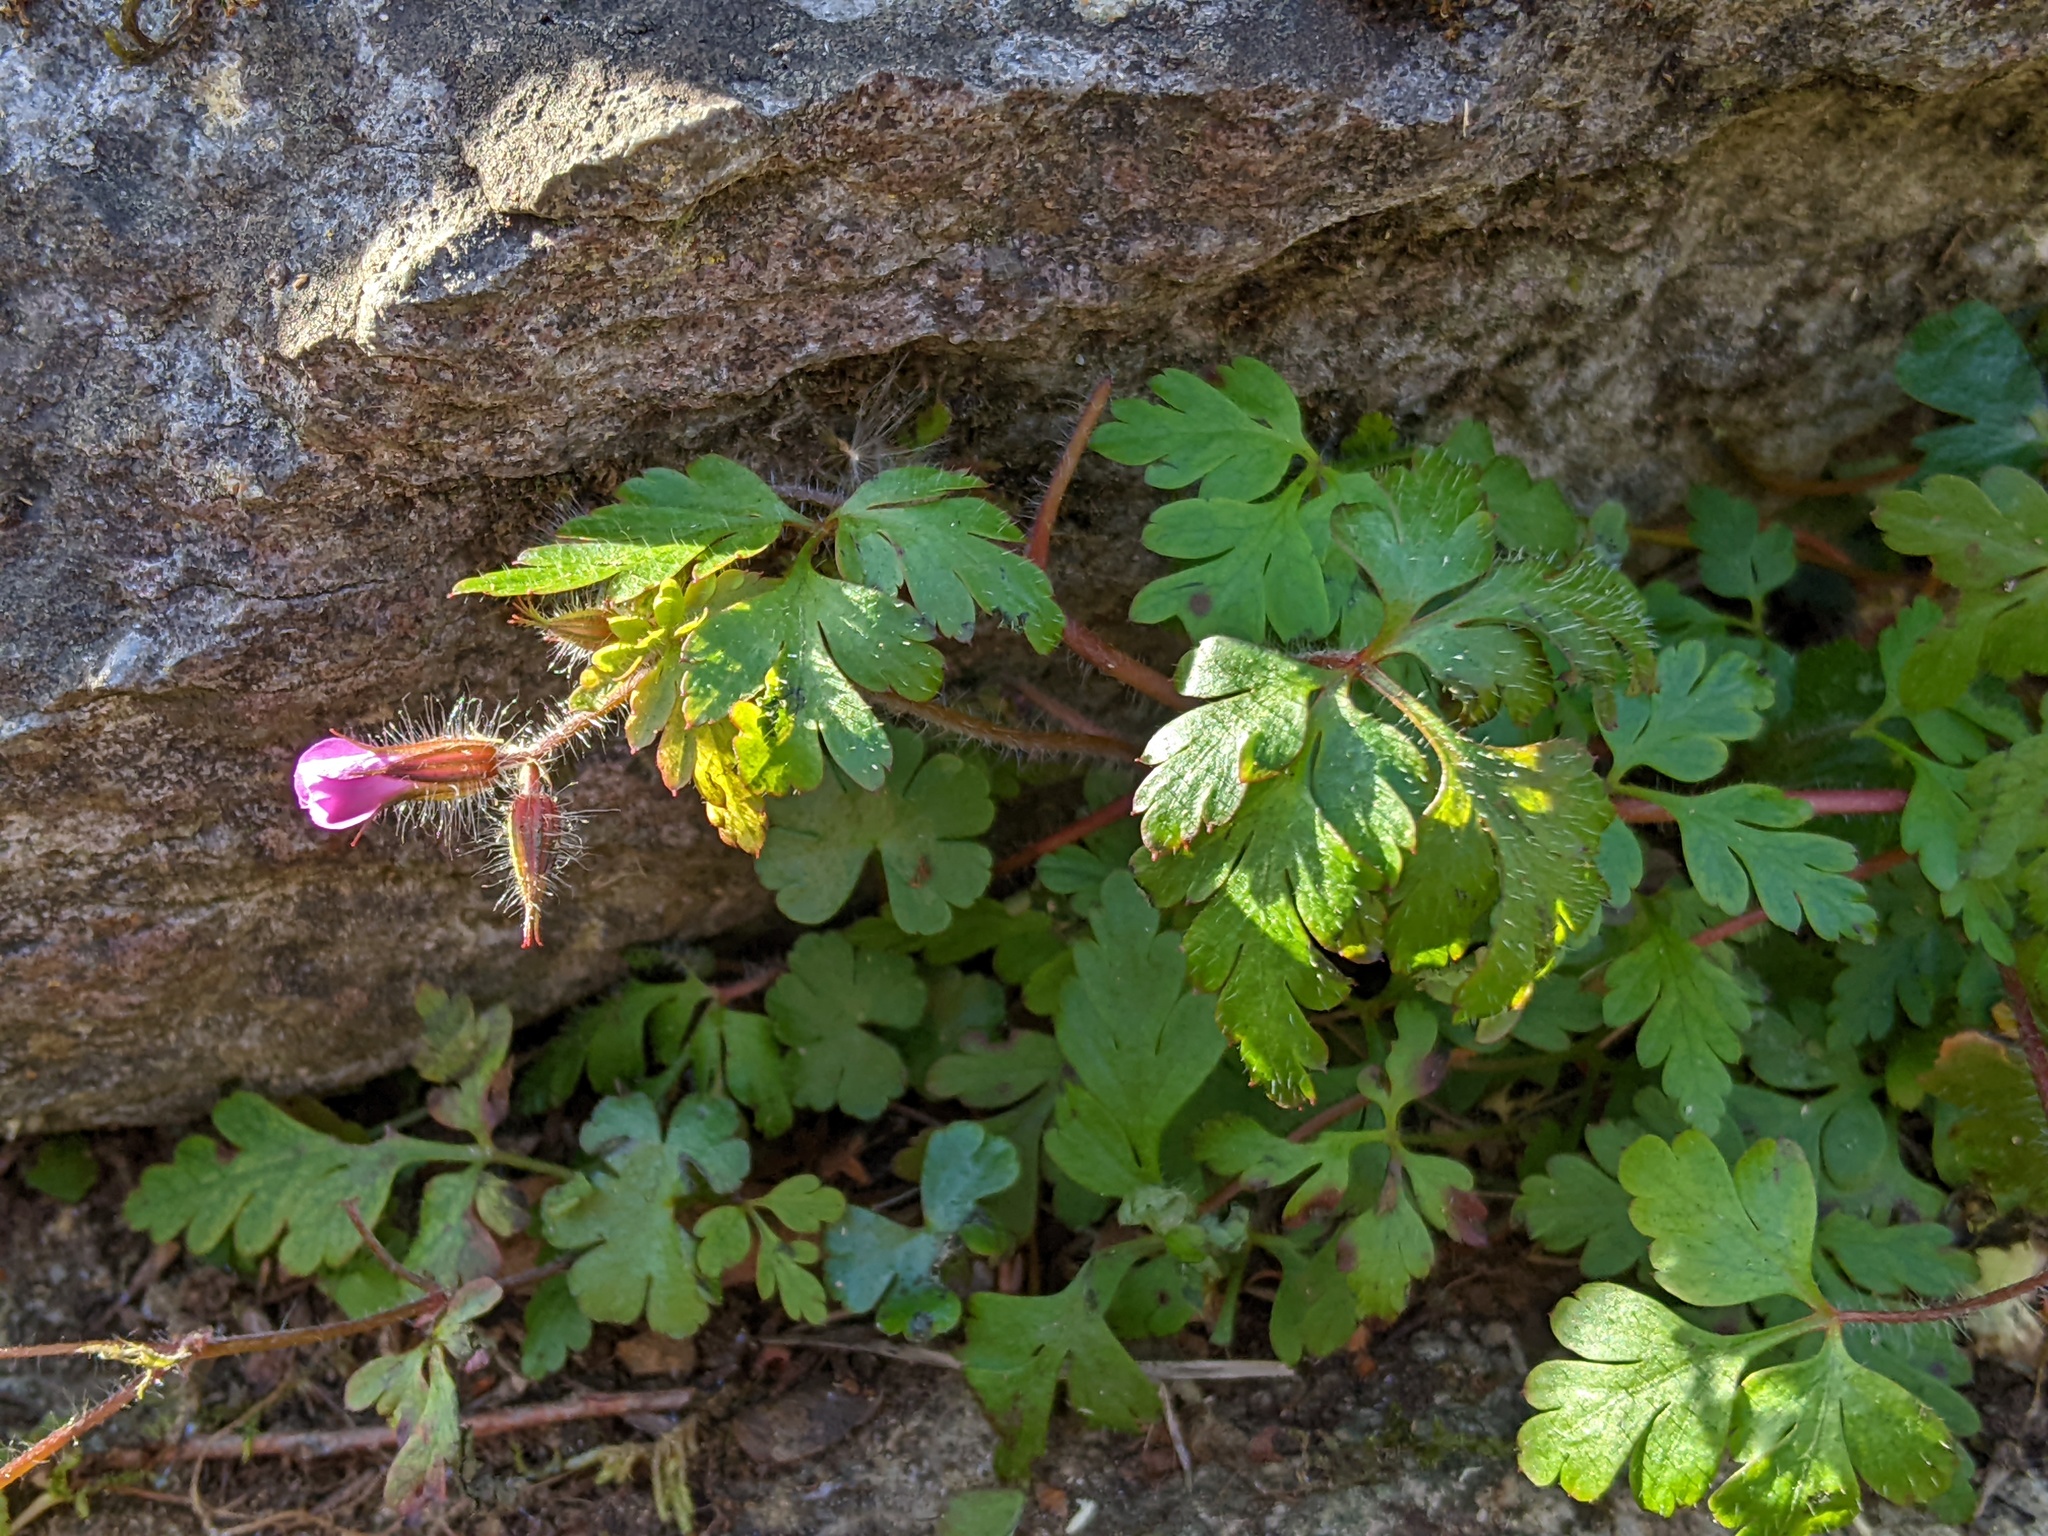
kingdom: Plantae
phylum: Tracheophyta
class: Magnoliopsida
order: Geraniales
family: Geraniaceae
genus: Geranium
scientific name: Geranium robertianum
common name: Herb-robert
